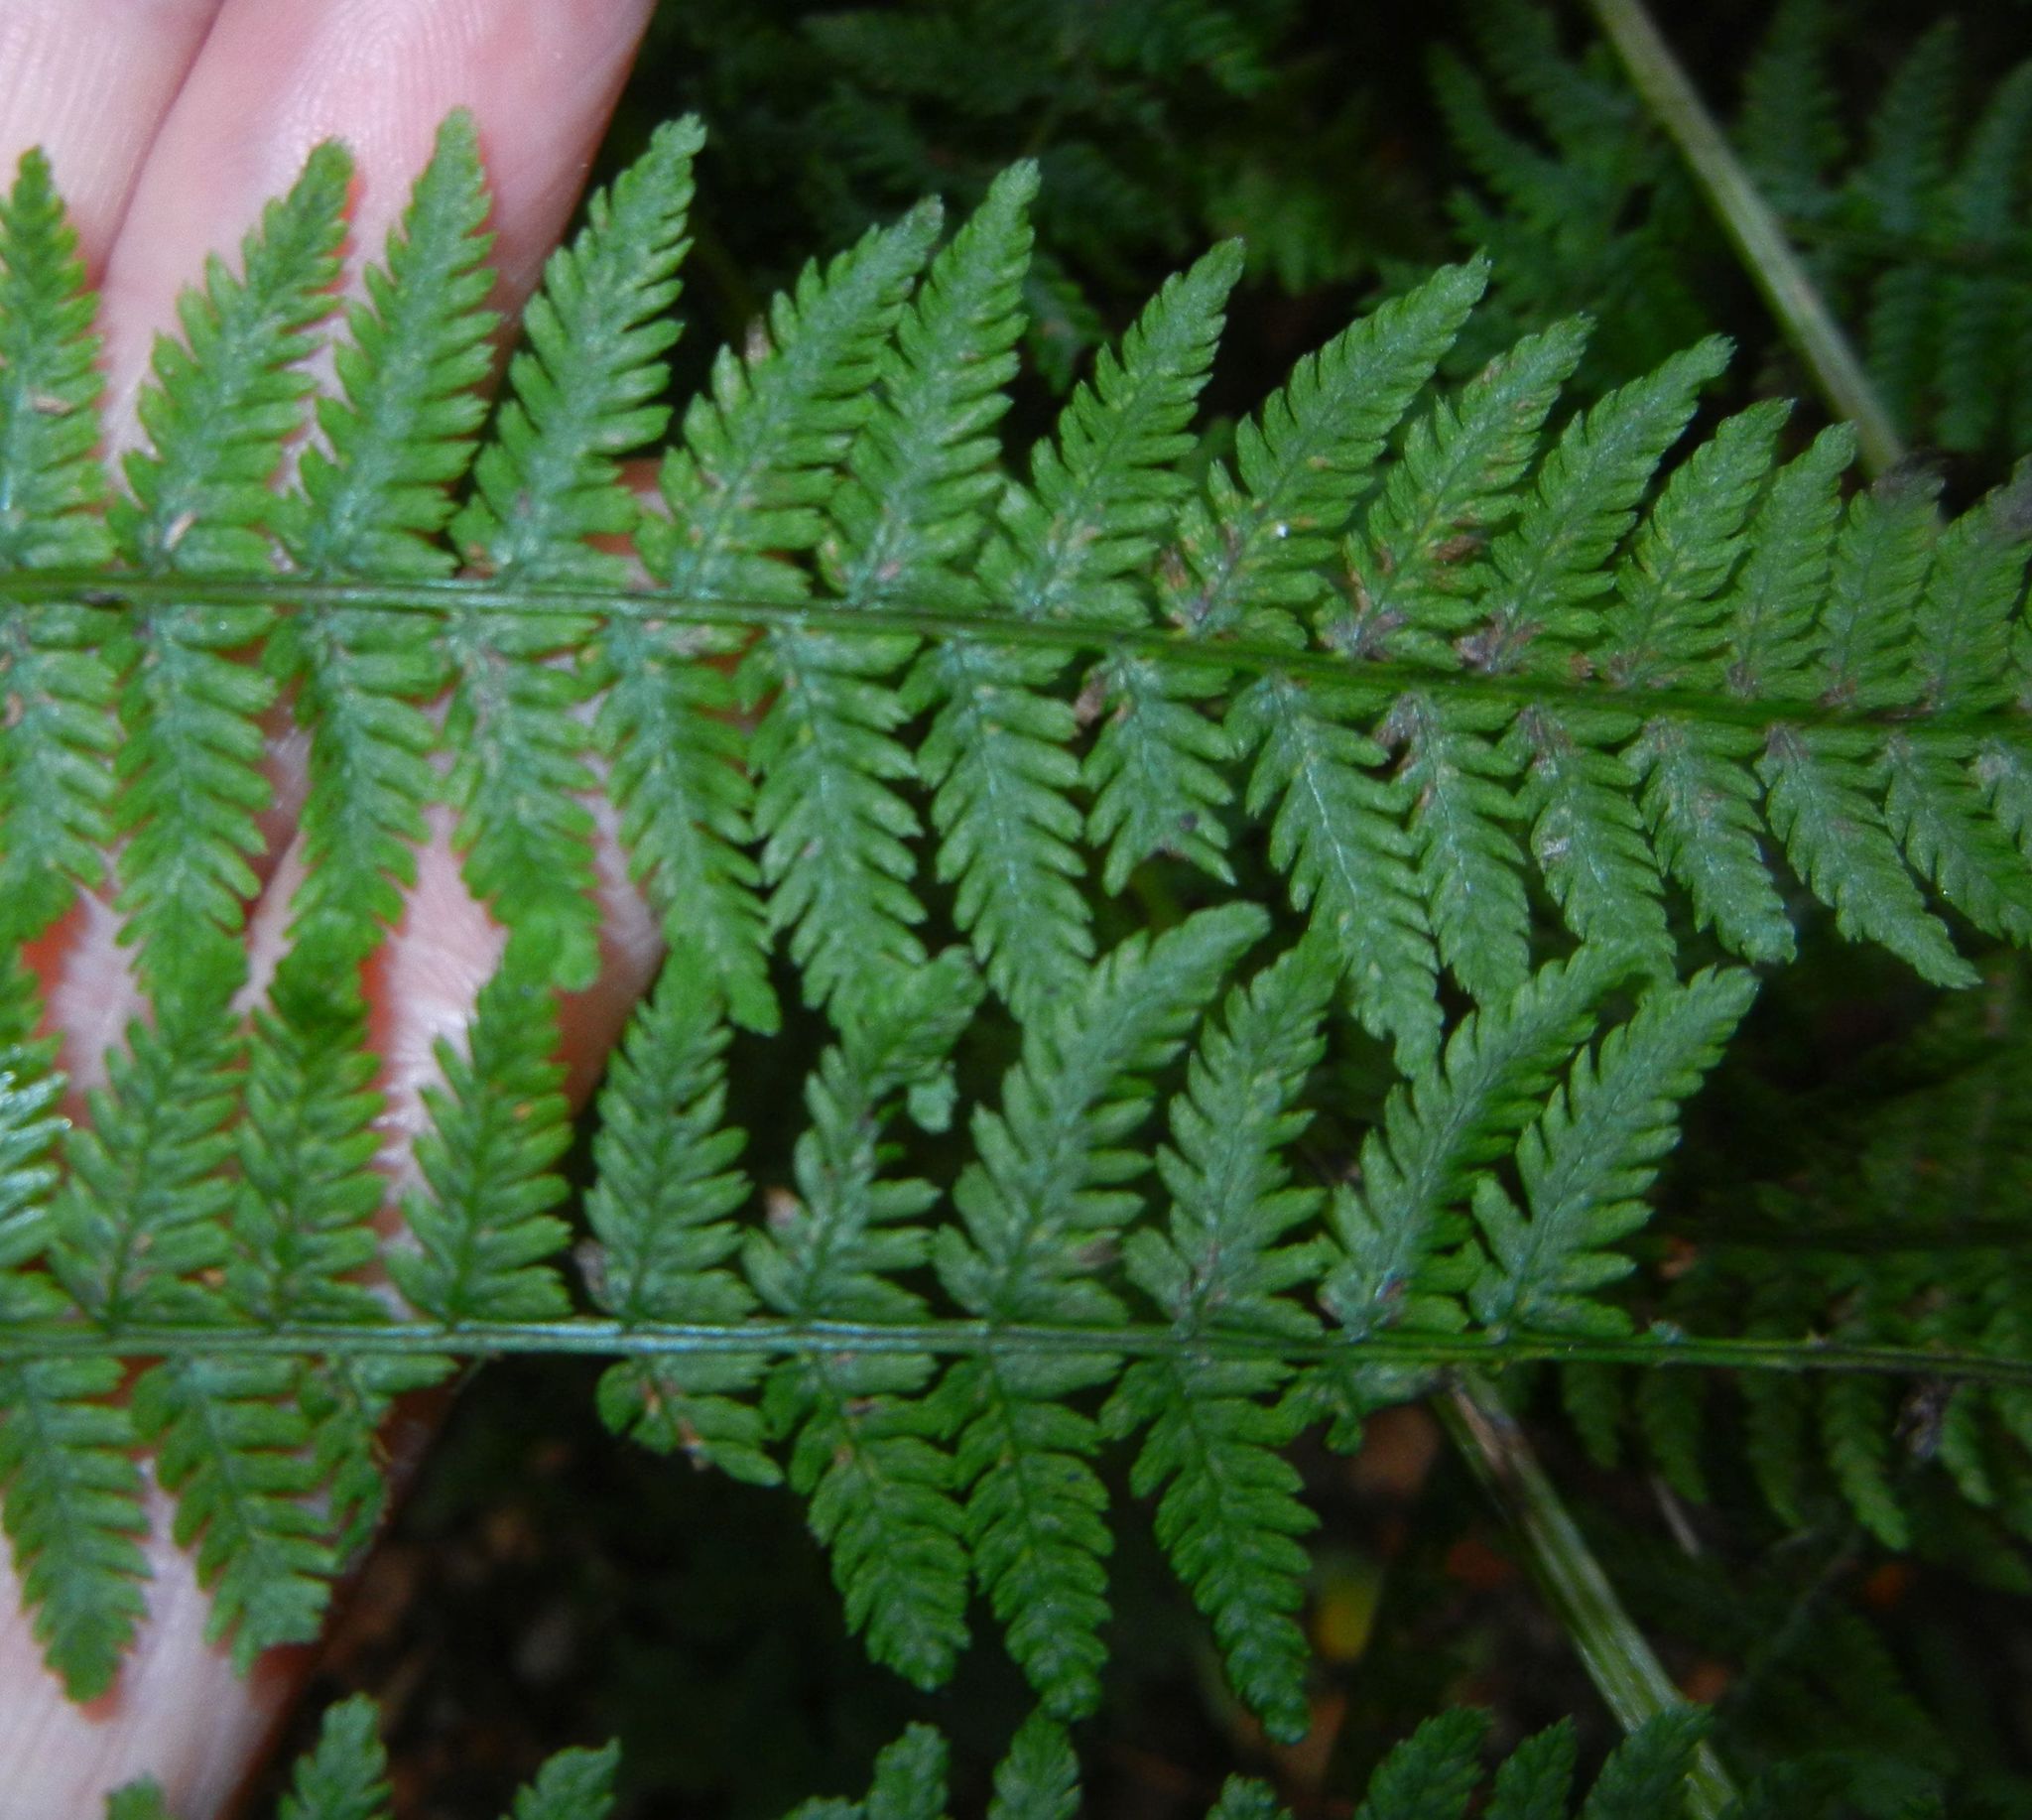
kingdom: Plantae
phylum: Tracheophyta
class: Polypodiopsida
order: Polypodiales
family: Athyriaceae
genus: Athyrium
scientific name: Athyrium filix-femina
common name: Lady fern
